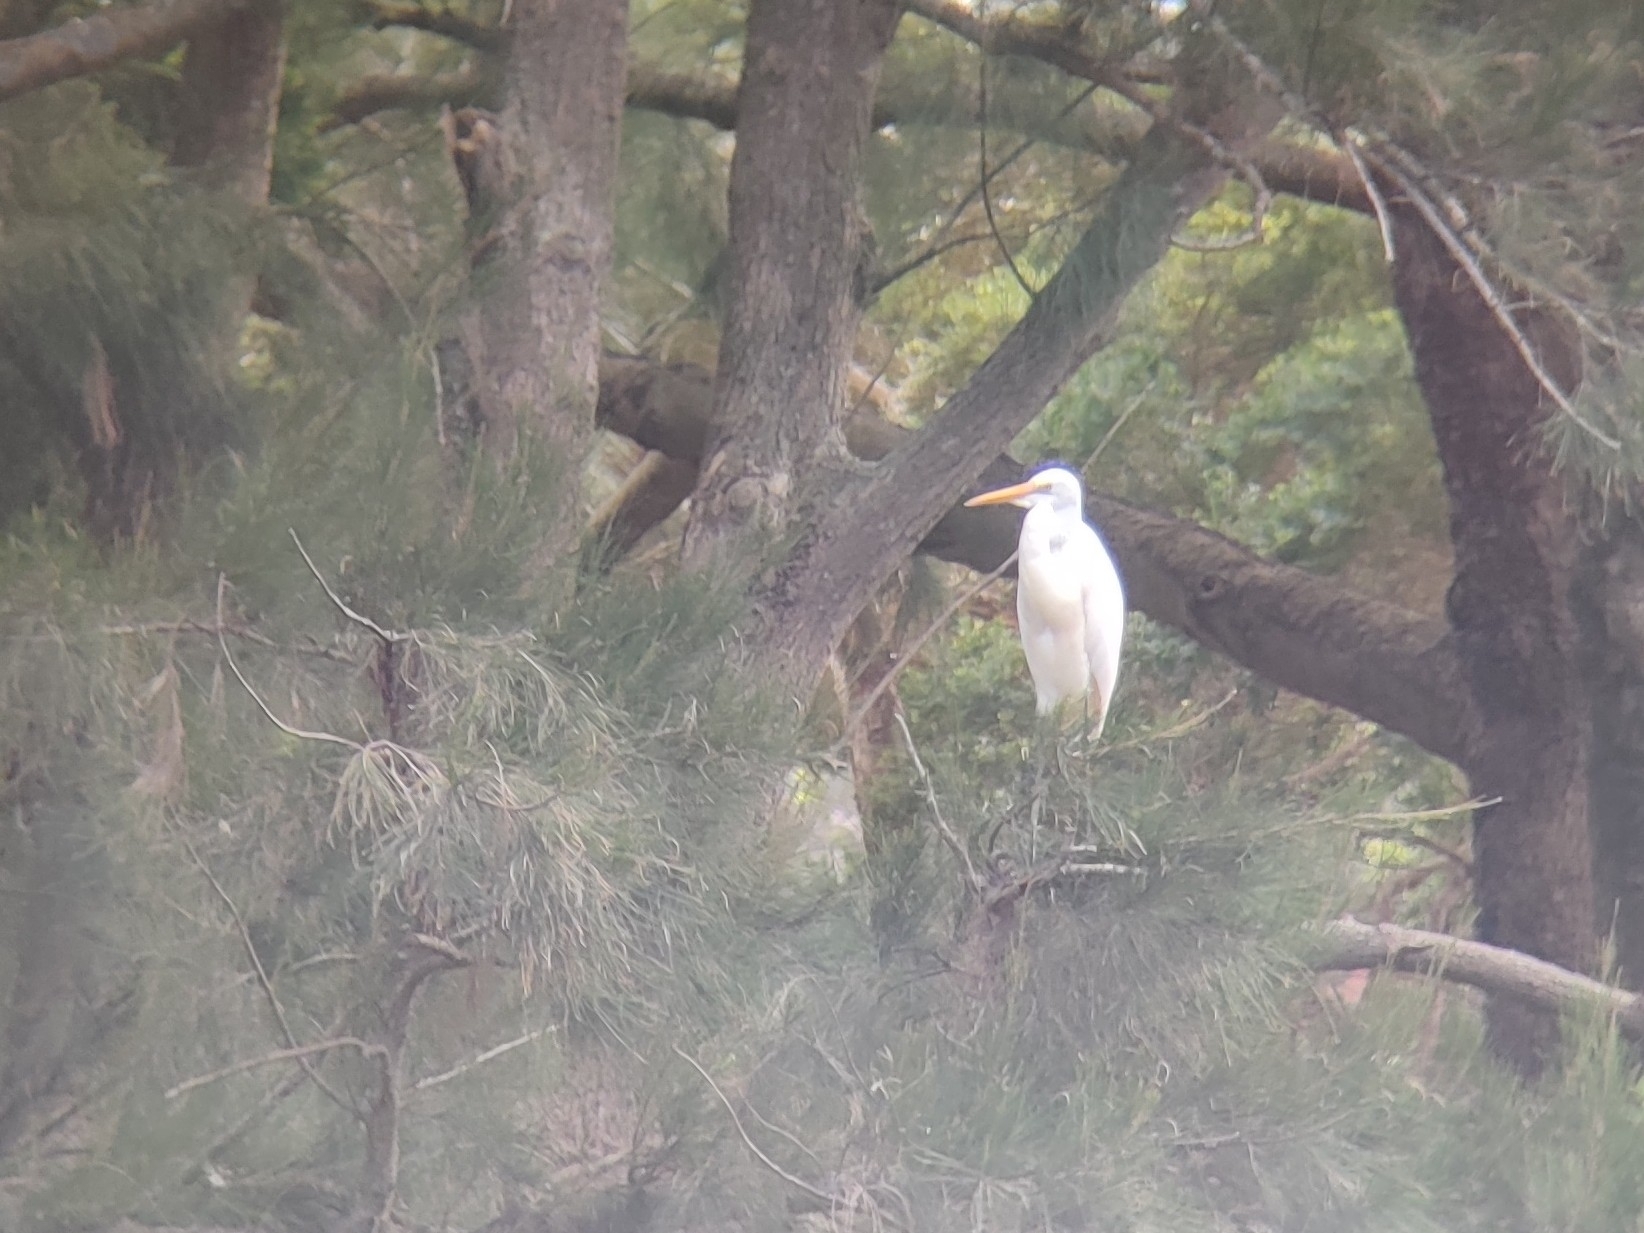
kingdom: Animalia
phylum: Chordata
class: Aves
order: Pelecaniformes
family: Ardeidae
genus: Ardea
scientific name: Ardea alba
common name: Great egret
